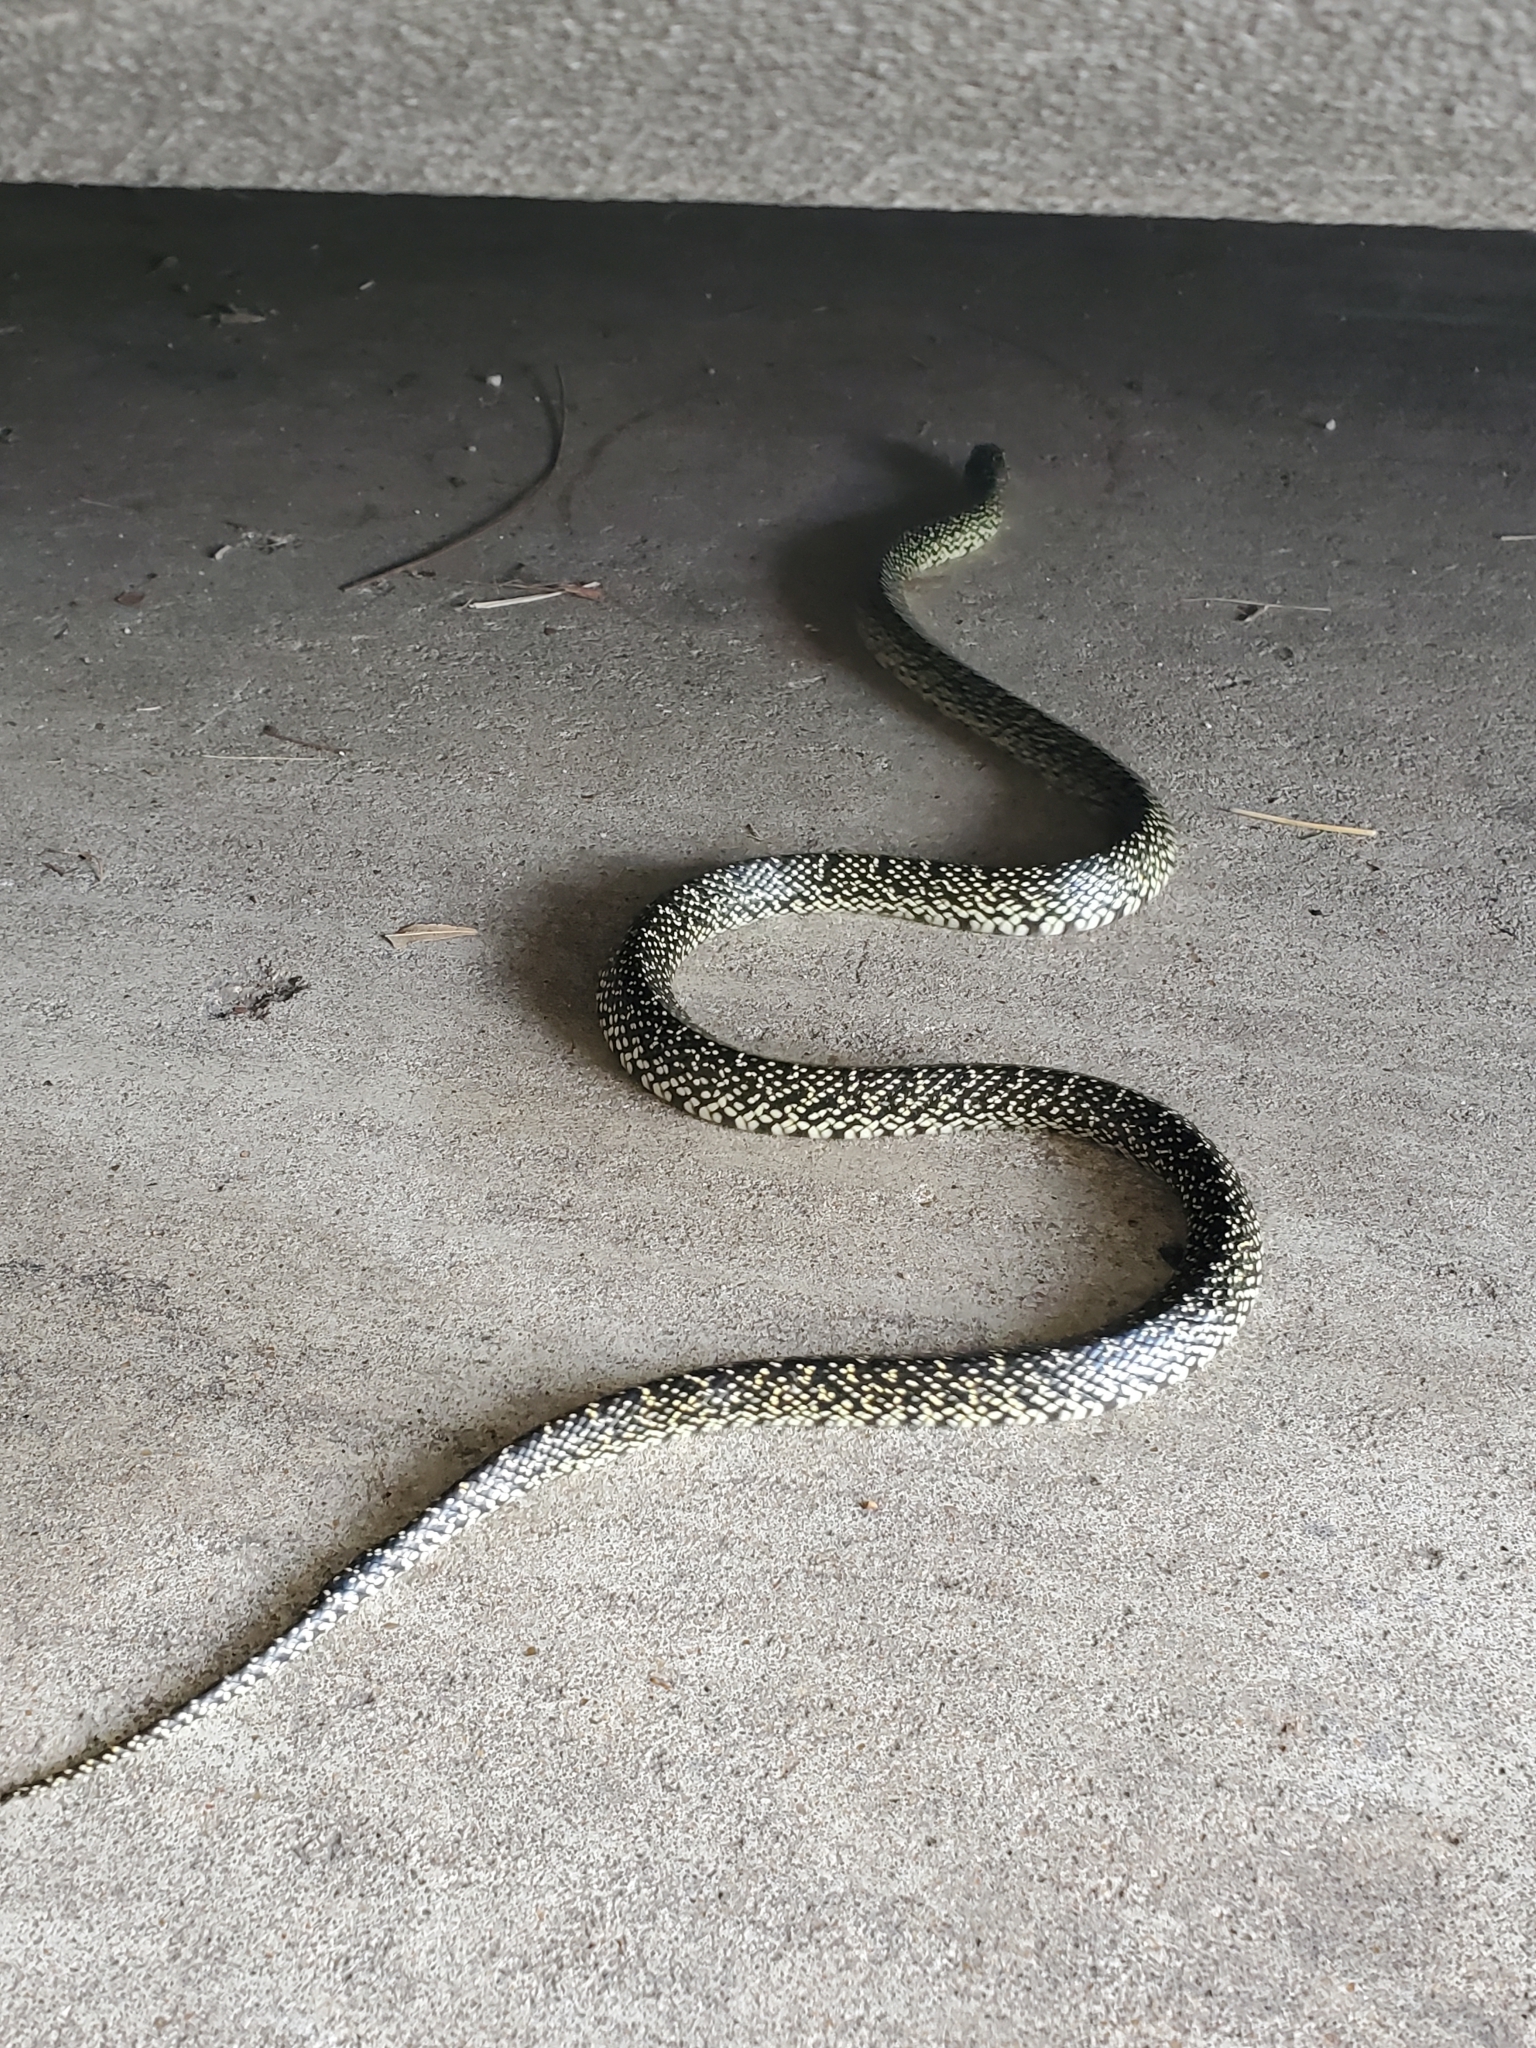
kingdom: Animalia
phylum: Chordata
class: Squamata
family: Colubridae
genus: Lampropeltis
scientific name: Lampropeltis holbrooki
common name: Speckled kingsnake
